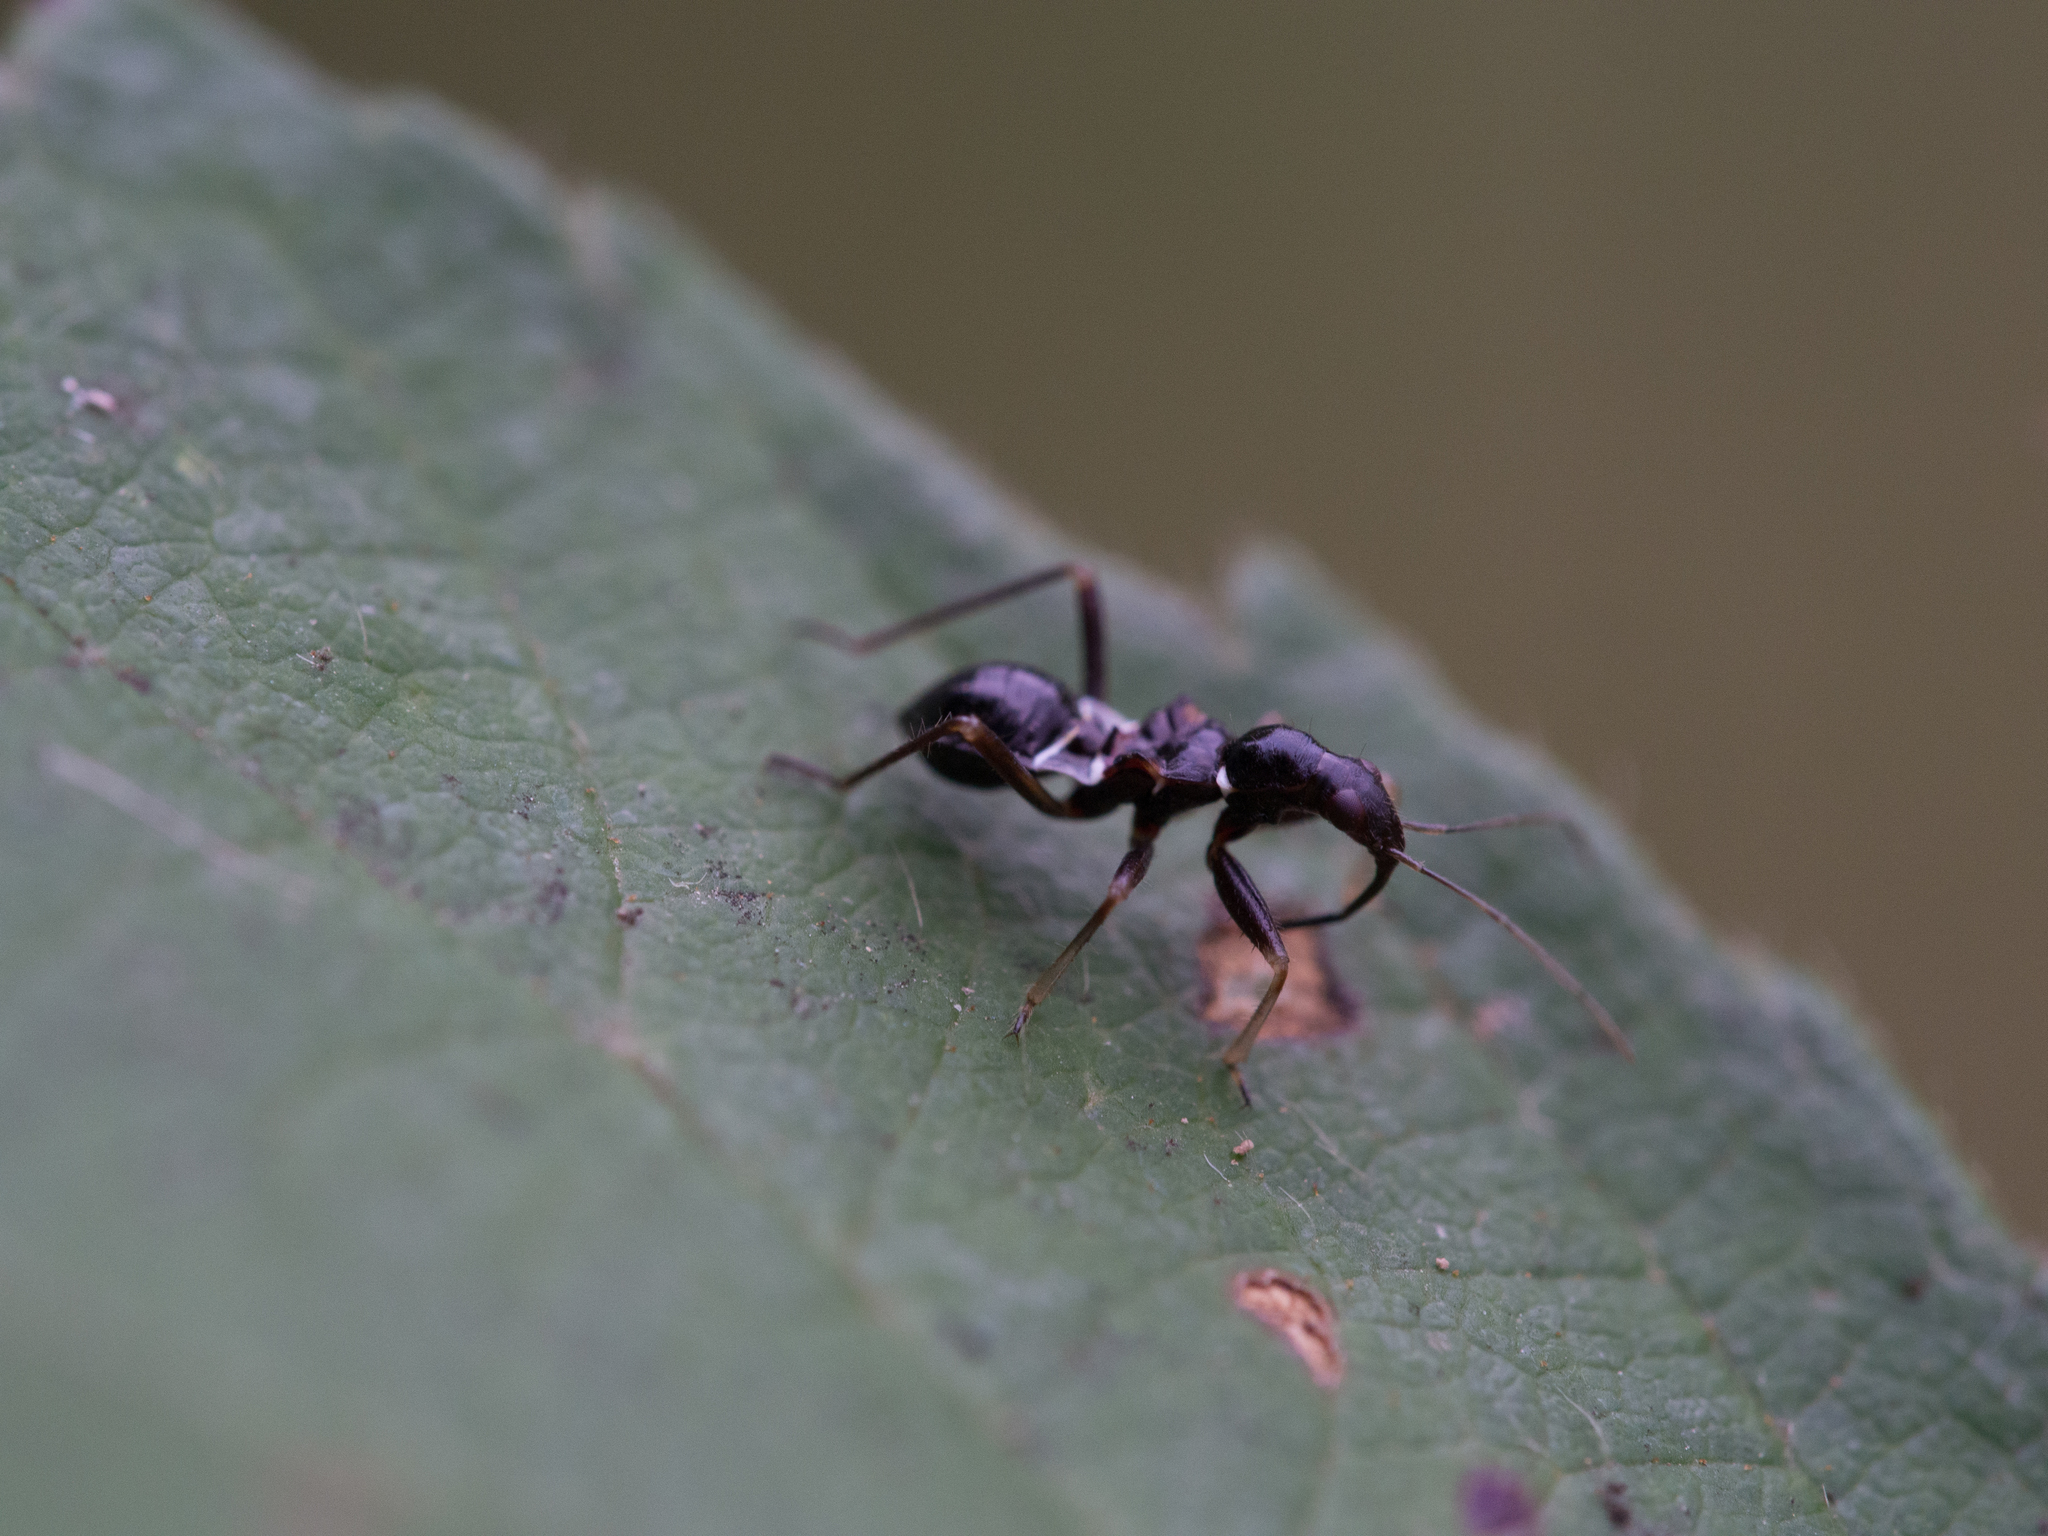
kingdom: Animalia
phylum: Arthropoda
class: Insecta
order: Hemiptera
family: Nabidae
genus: Himacerus
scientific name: Himacerus mirmicoides
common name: Ant damsel bug
